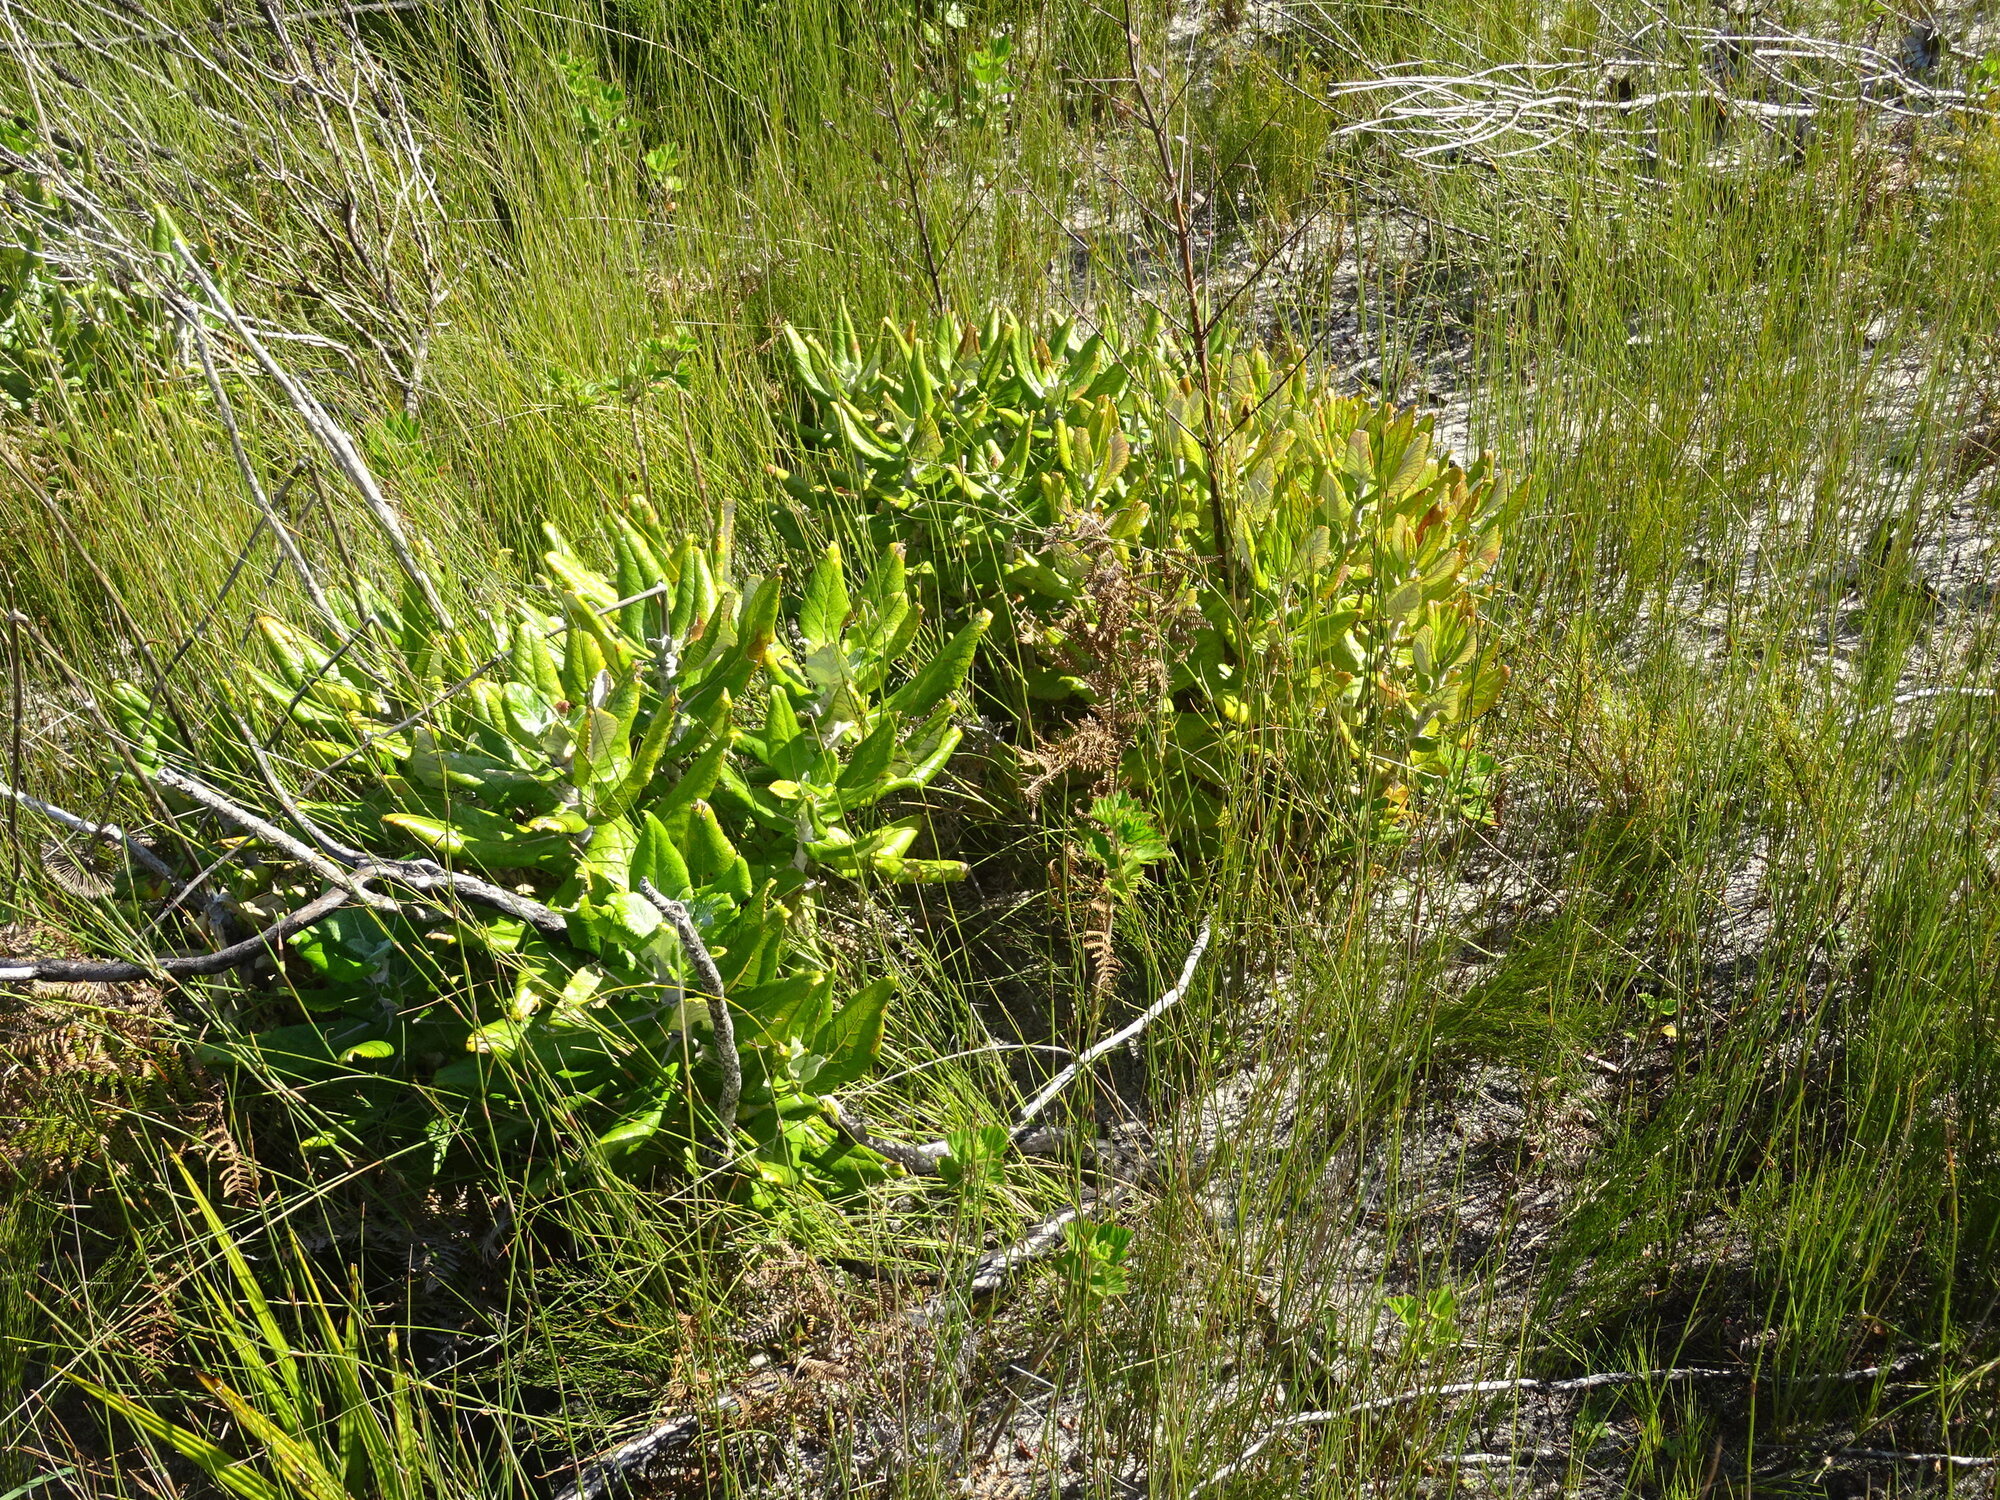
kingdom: Plantae
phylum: Tracheophyta
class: Magnoliopsida
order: Apiales
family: Apiaceae
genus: Hermas
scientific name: Hermas villosa
